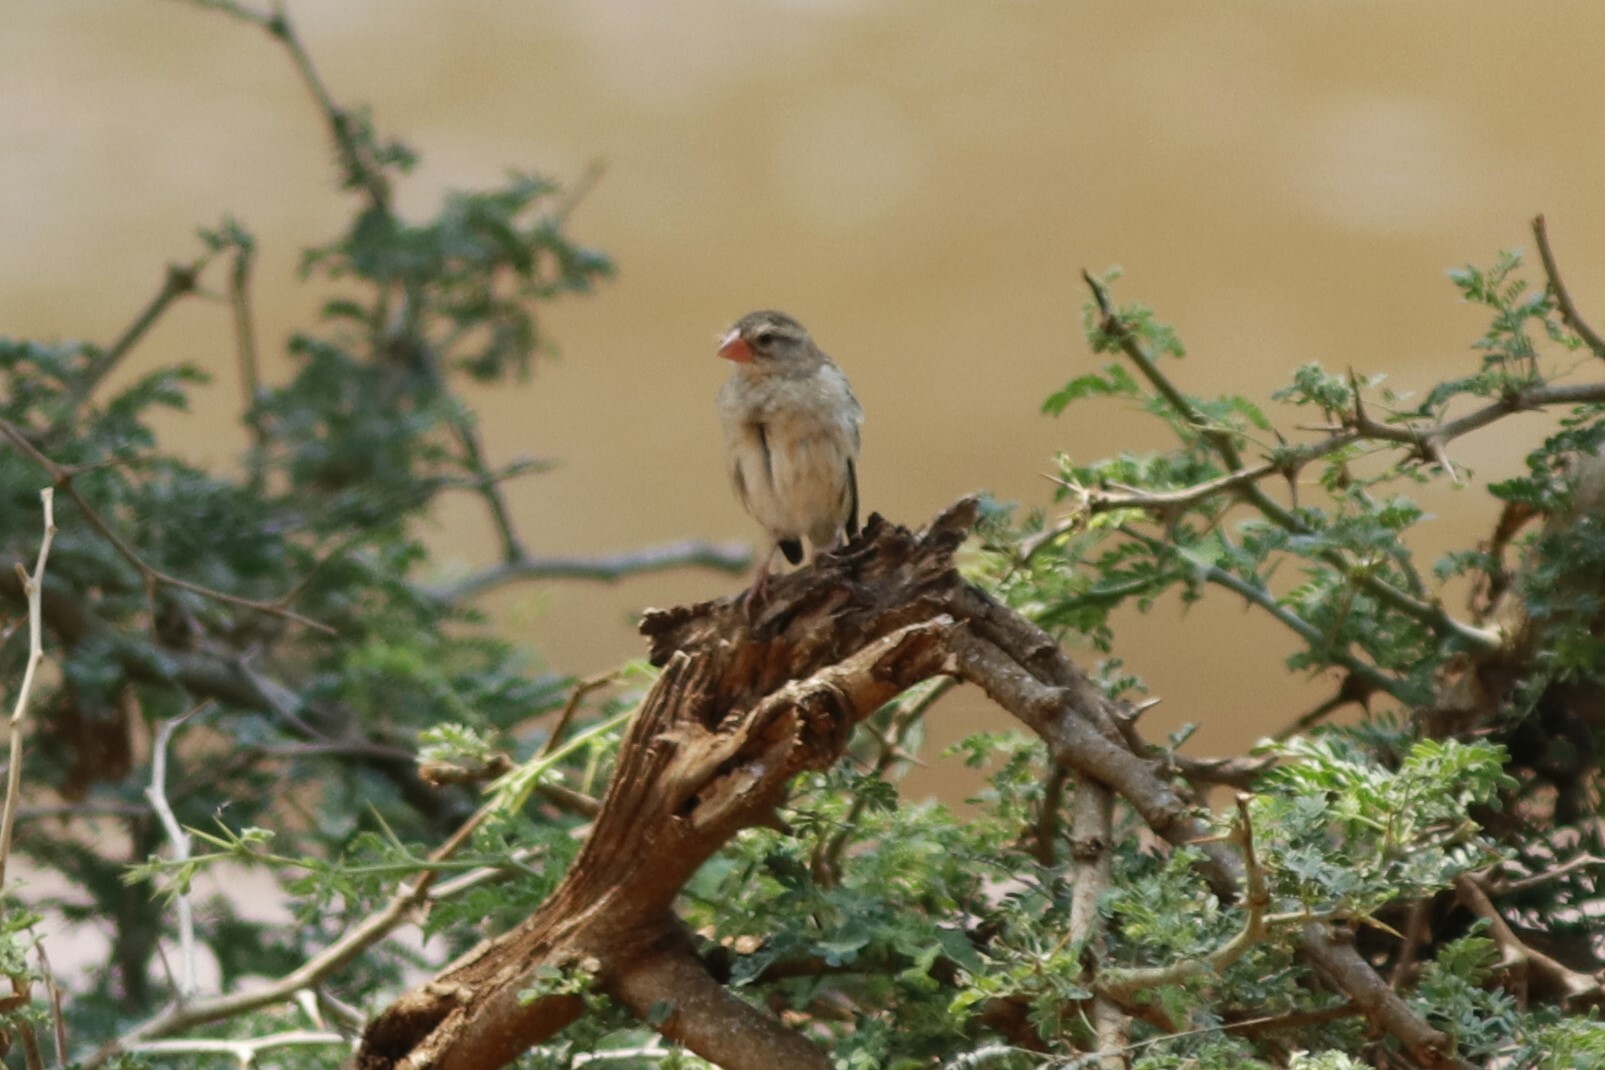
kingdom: Animalia
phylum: Chordata
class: Aves
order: Passeriformes
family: Ploceidae
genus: Quelea
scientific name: Quelea quelea
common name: Red-billed quelea
